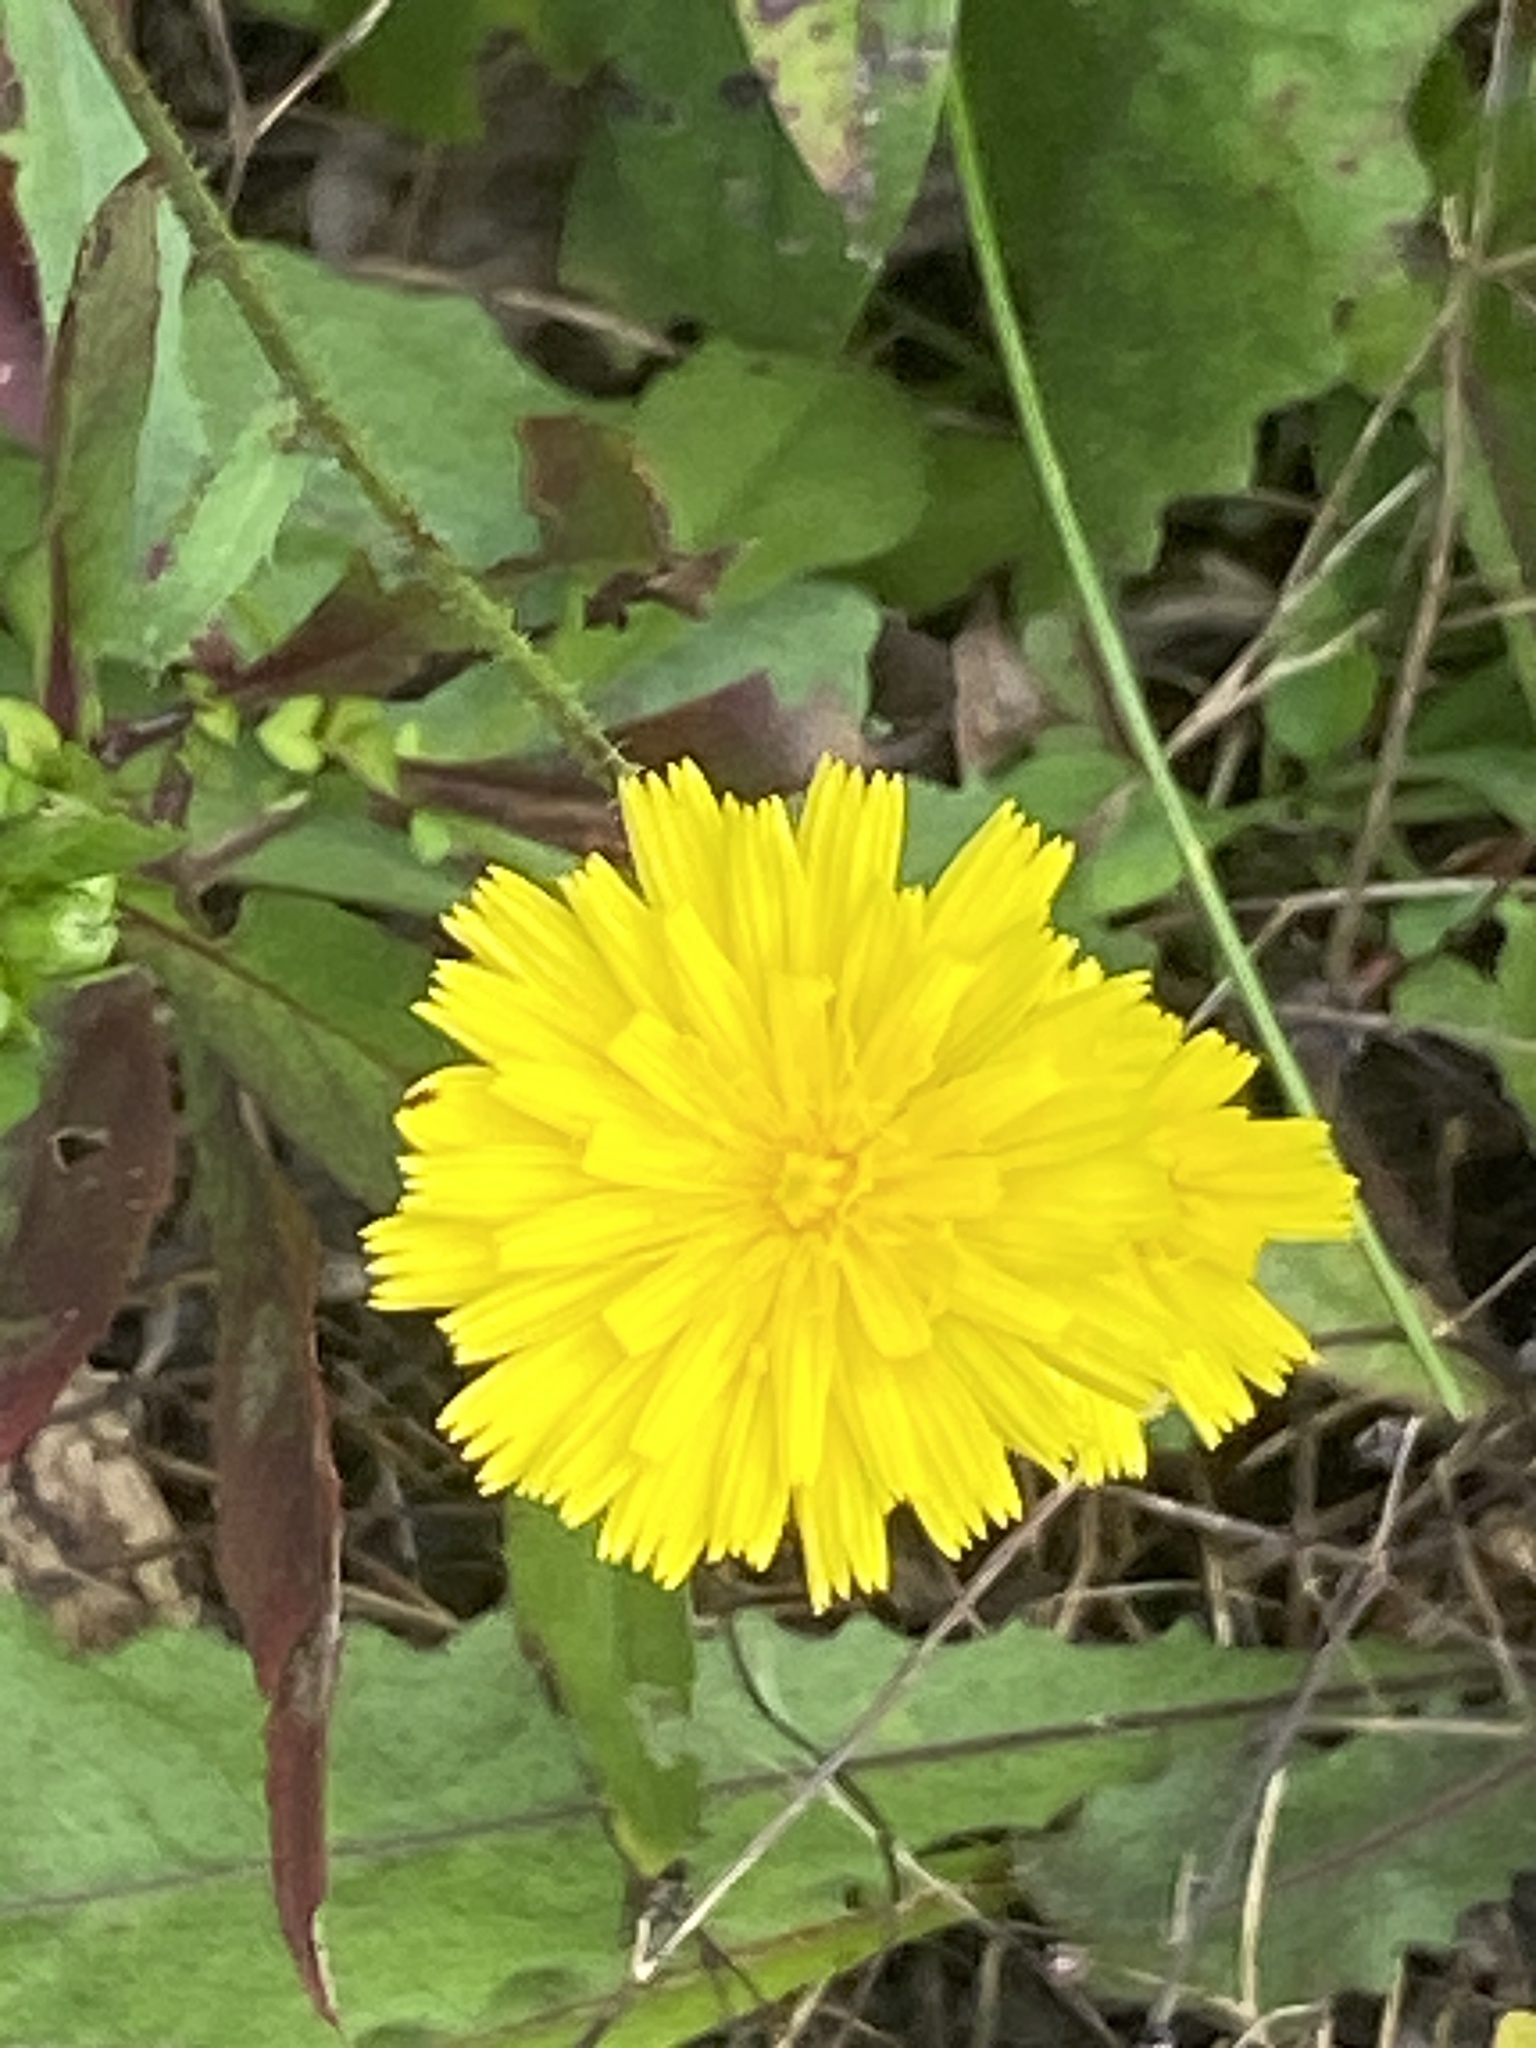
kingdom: Plantae
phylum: Tracheophyta
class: Magnoliopsida
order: Asterales
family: Asteraceae
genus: Picris
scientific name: Picris hieracioides
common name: Hawkweed oxtongue
